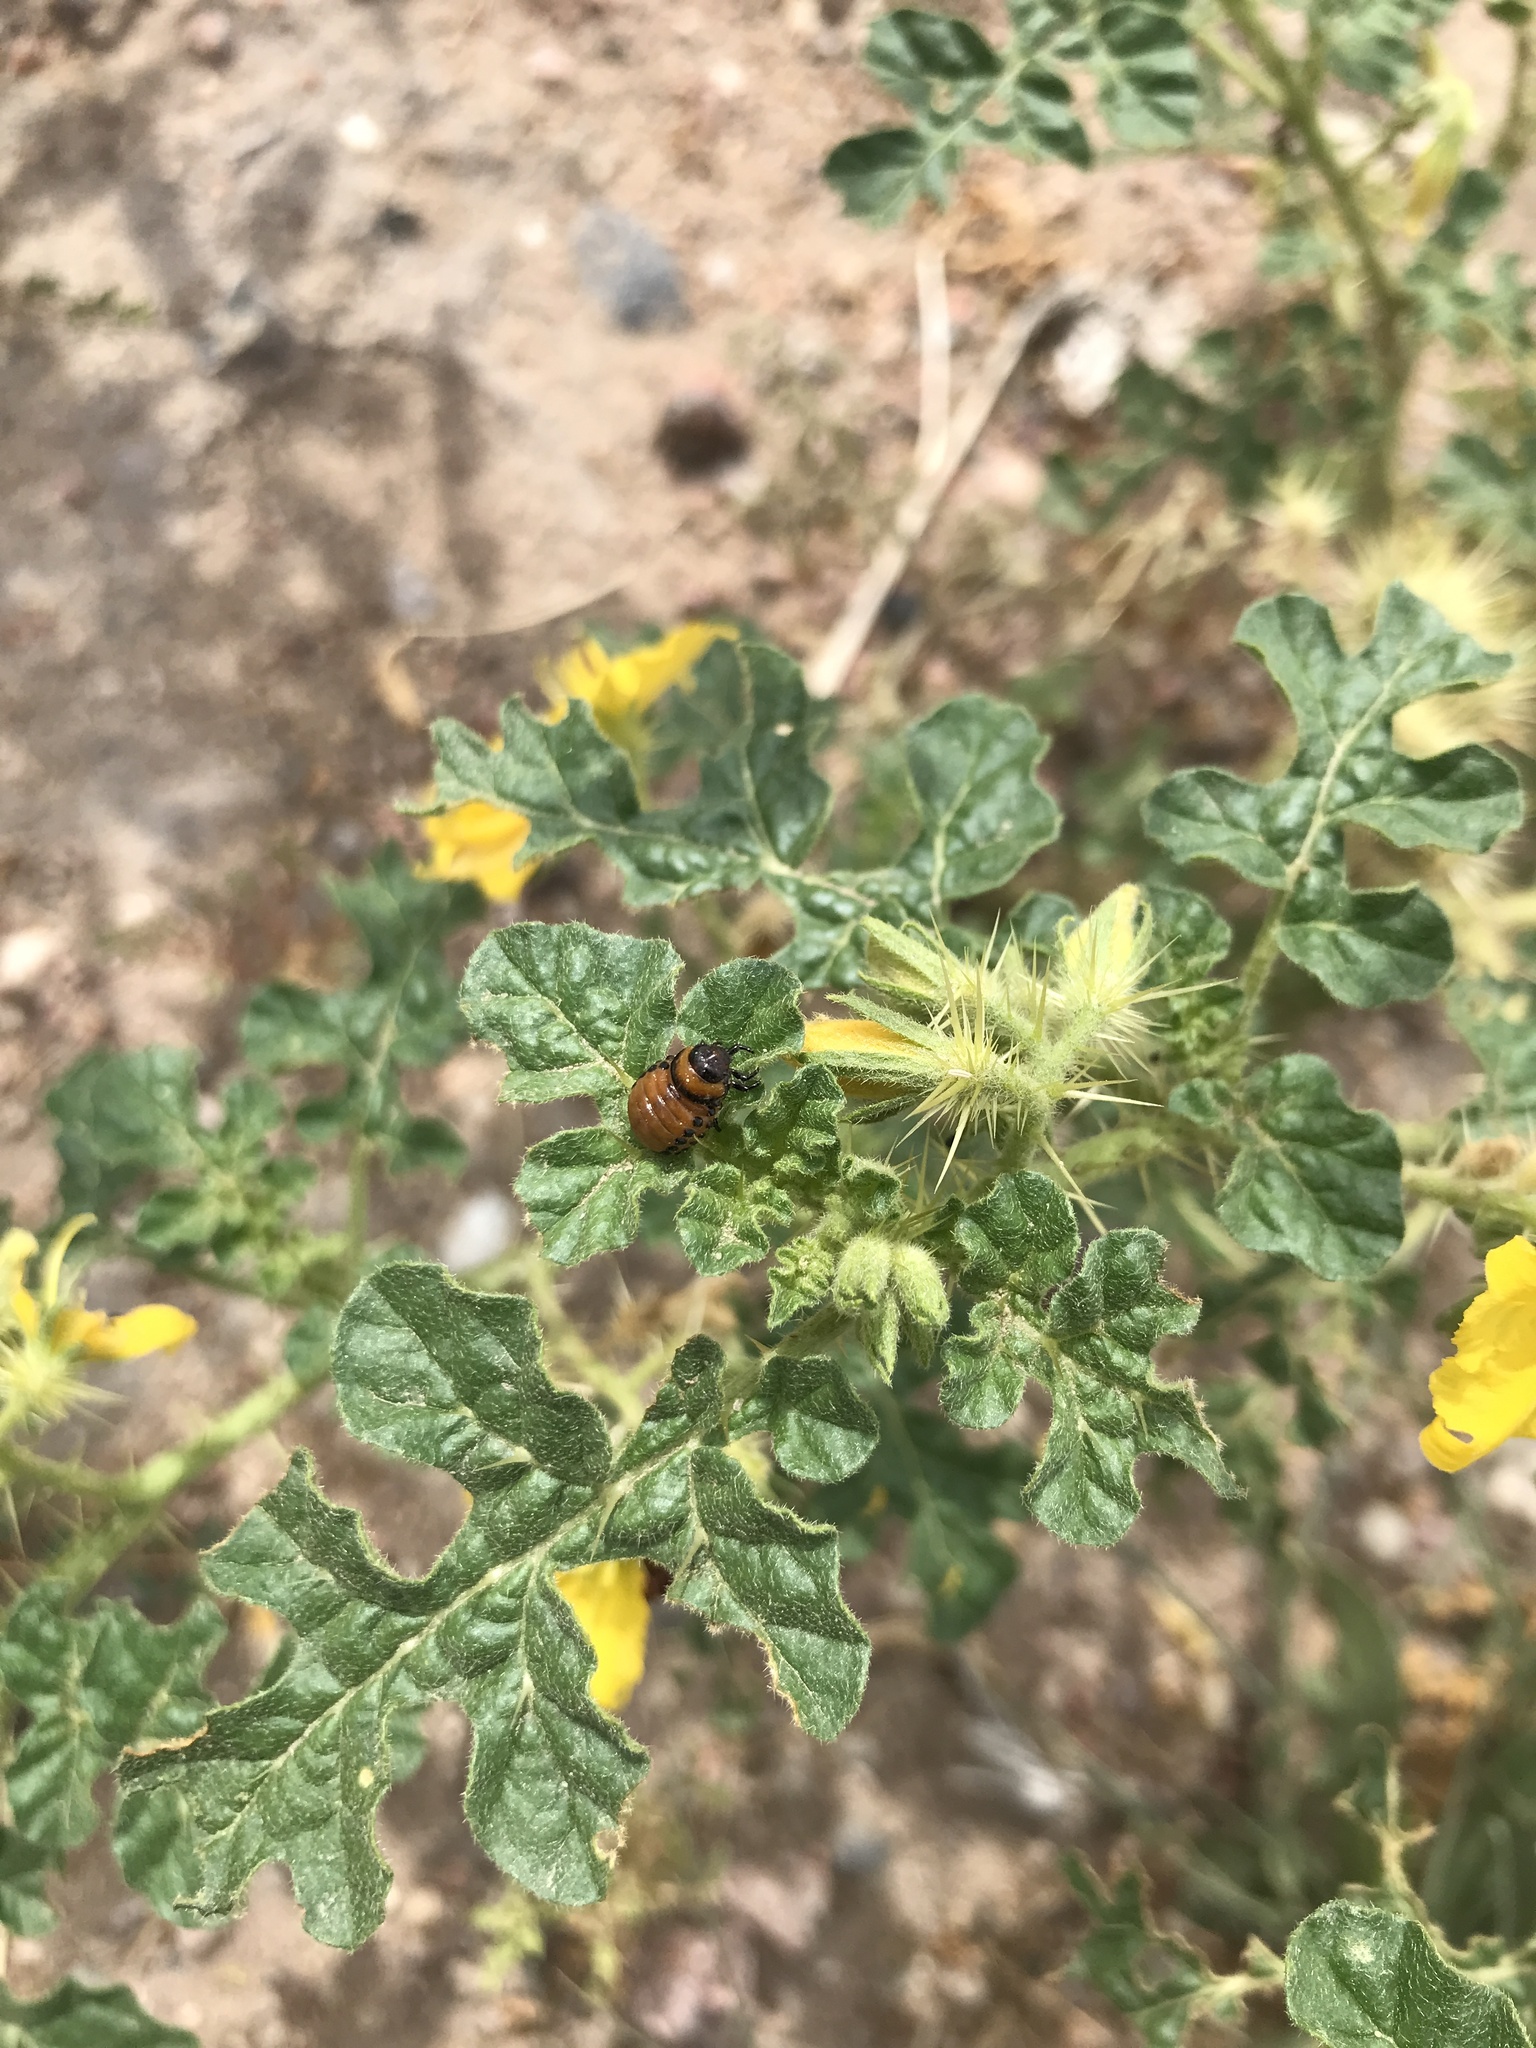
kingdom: Animalia
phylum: Arthropoda
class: Insecta
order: Coleoptera
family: Chrysomelidae
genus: Leptinotarsa
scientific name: Leptinotarsa decemlineata
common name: Colorado potato beetle
